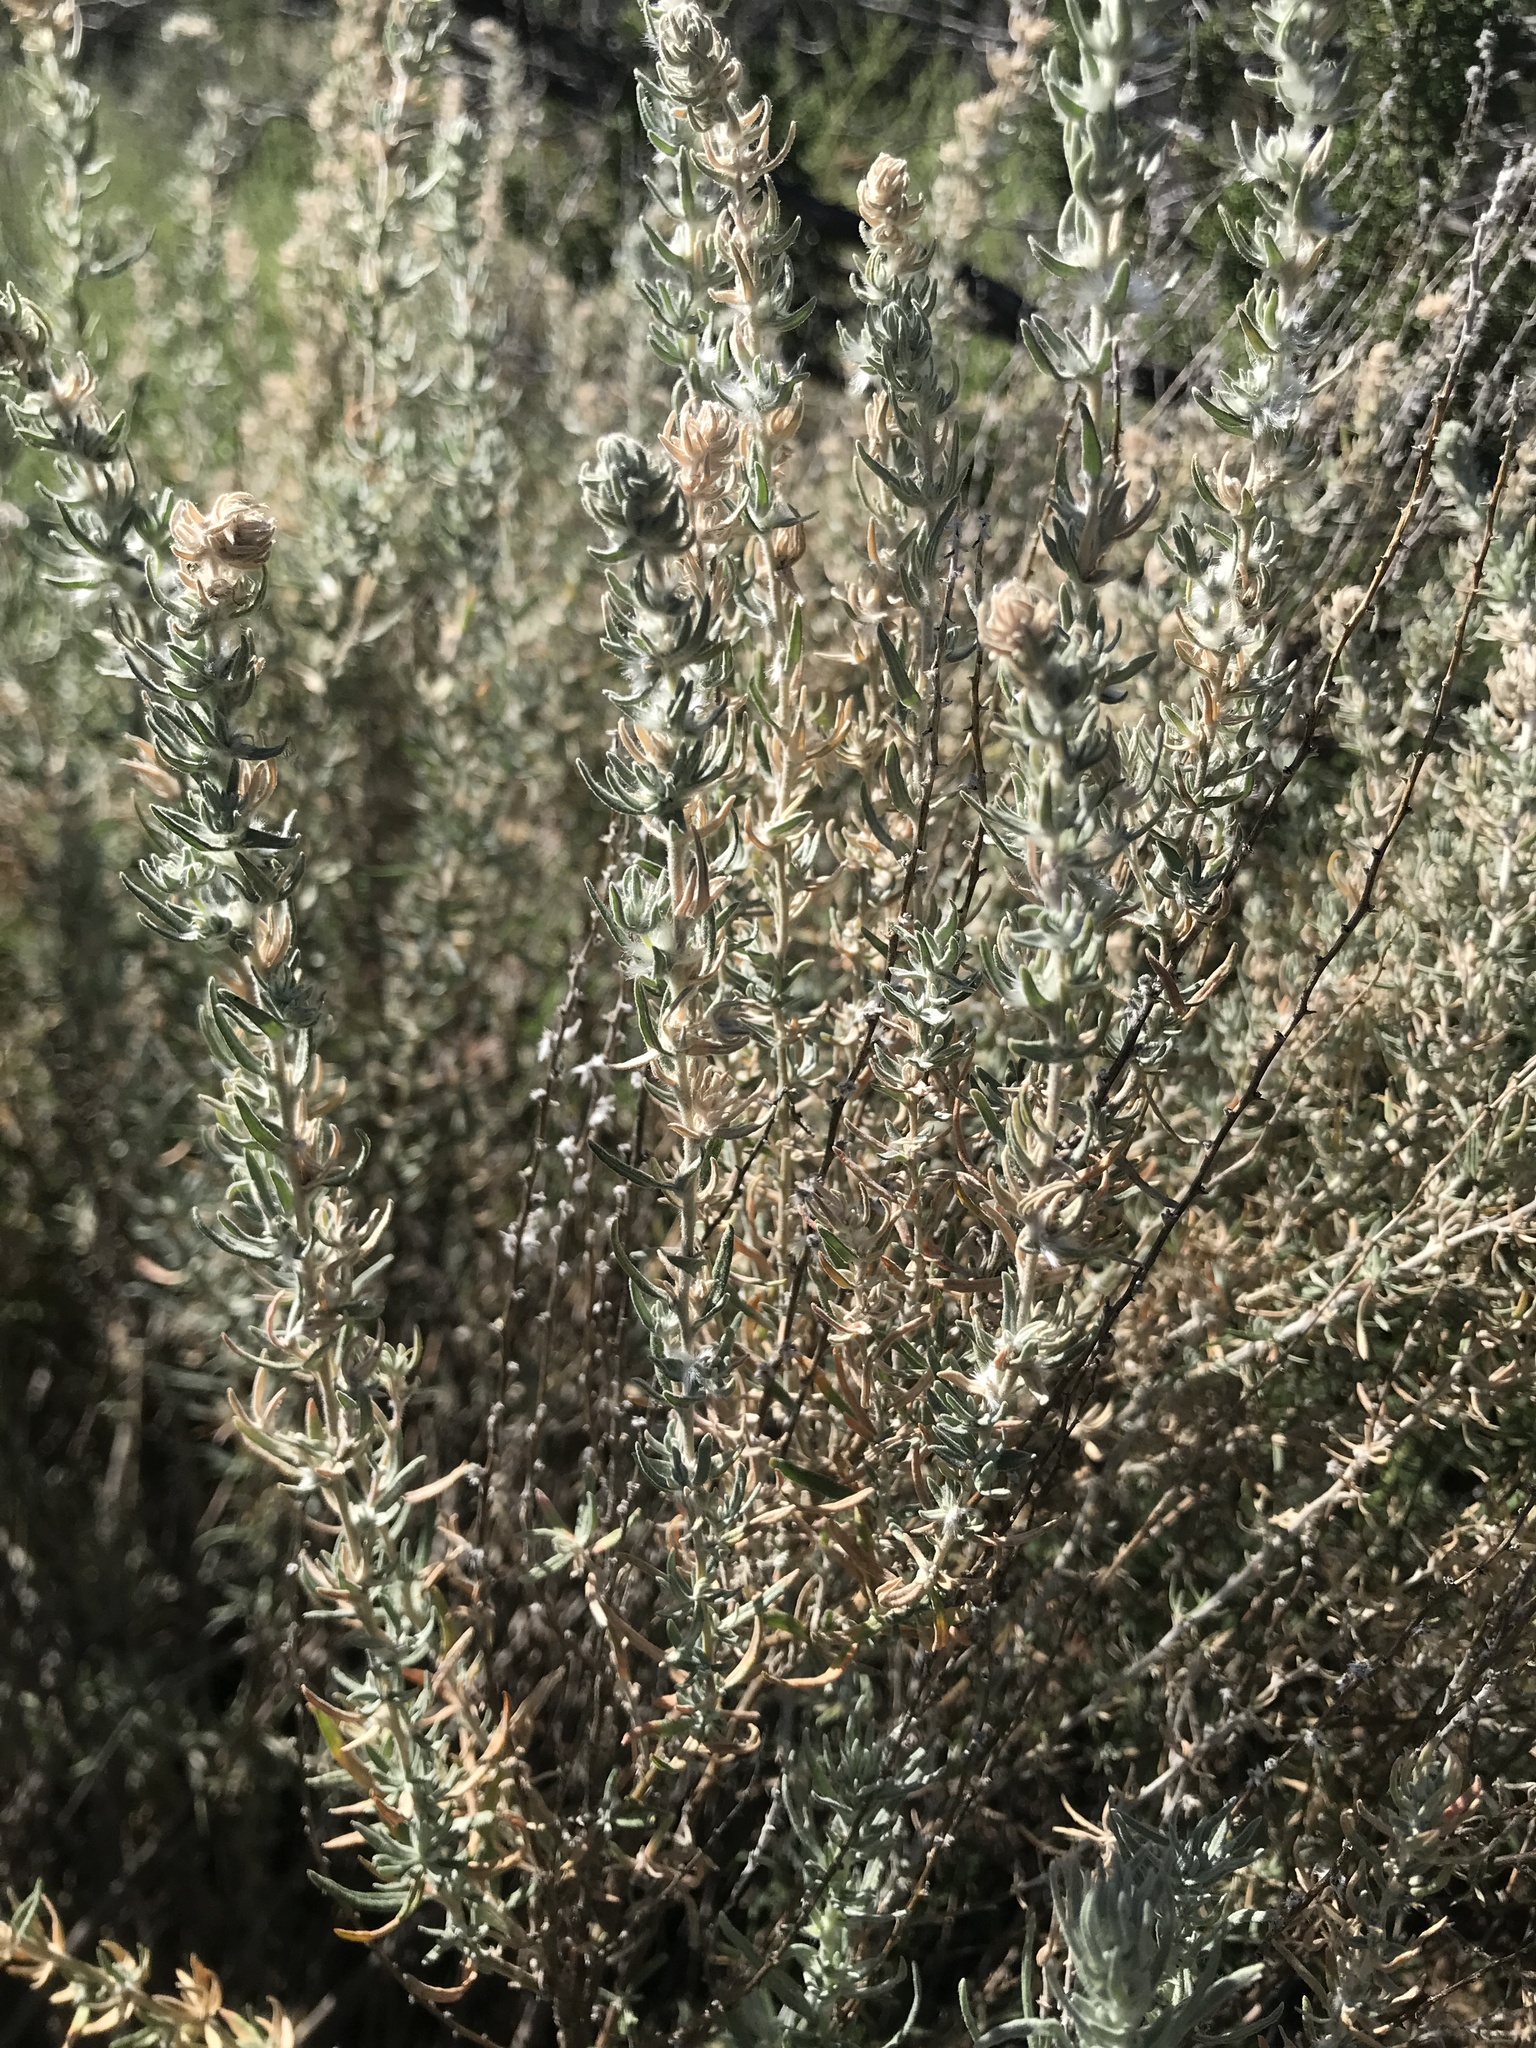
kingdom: Plantae
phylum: Tracheophyta
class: Magnoliopsida
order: Caryophyllales
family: Amaranthaceae
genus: Krascheninnikovia
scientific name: Krascheninnikovia lanata
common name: Winterfat
